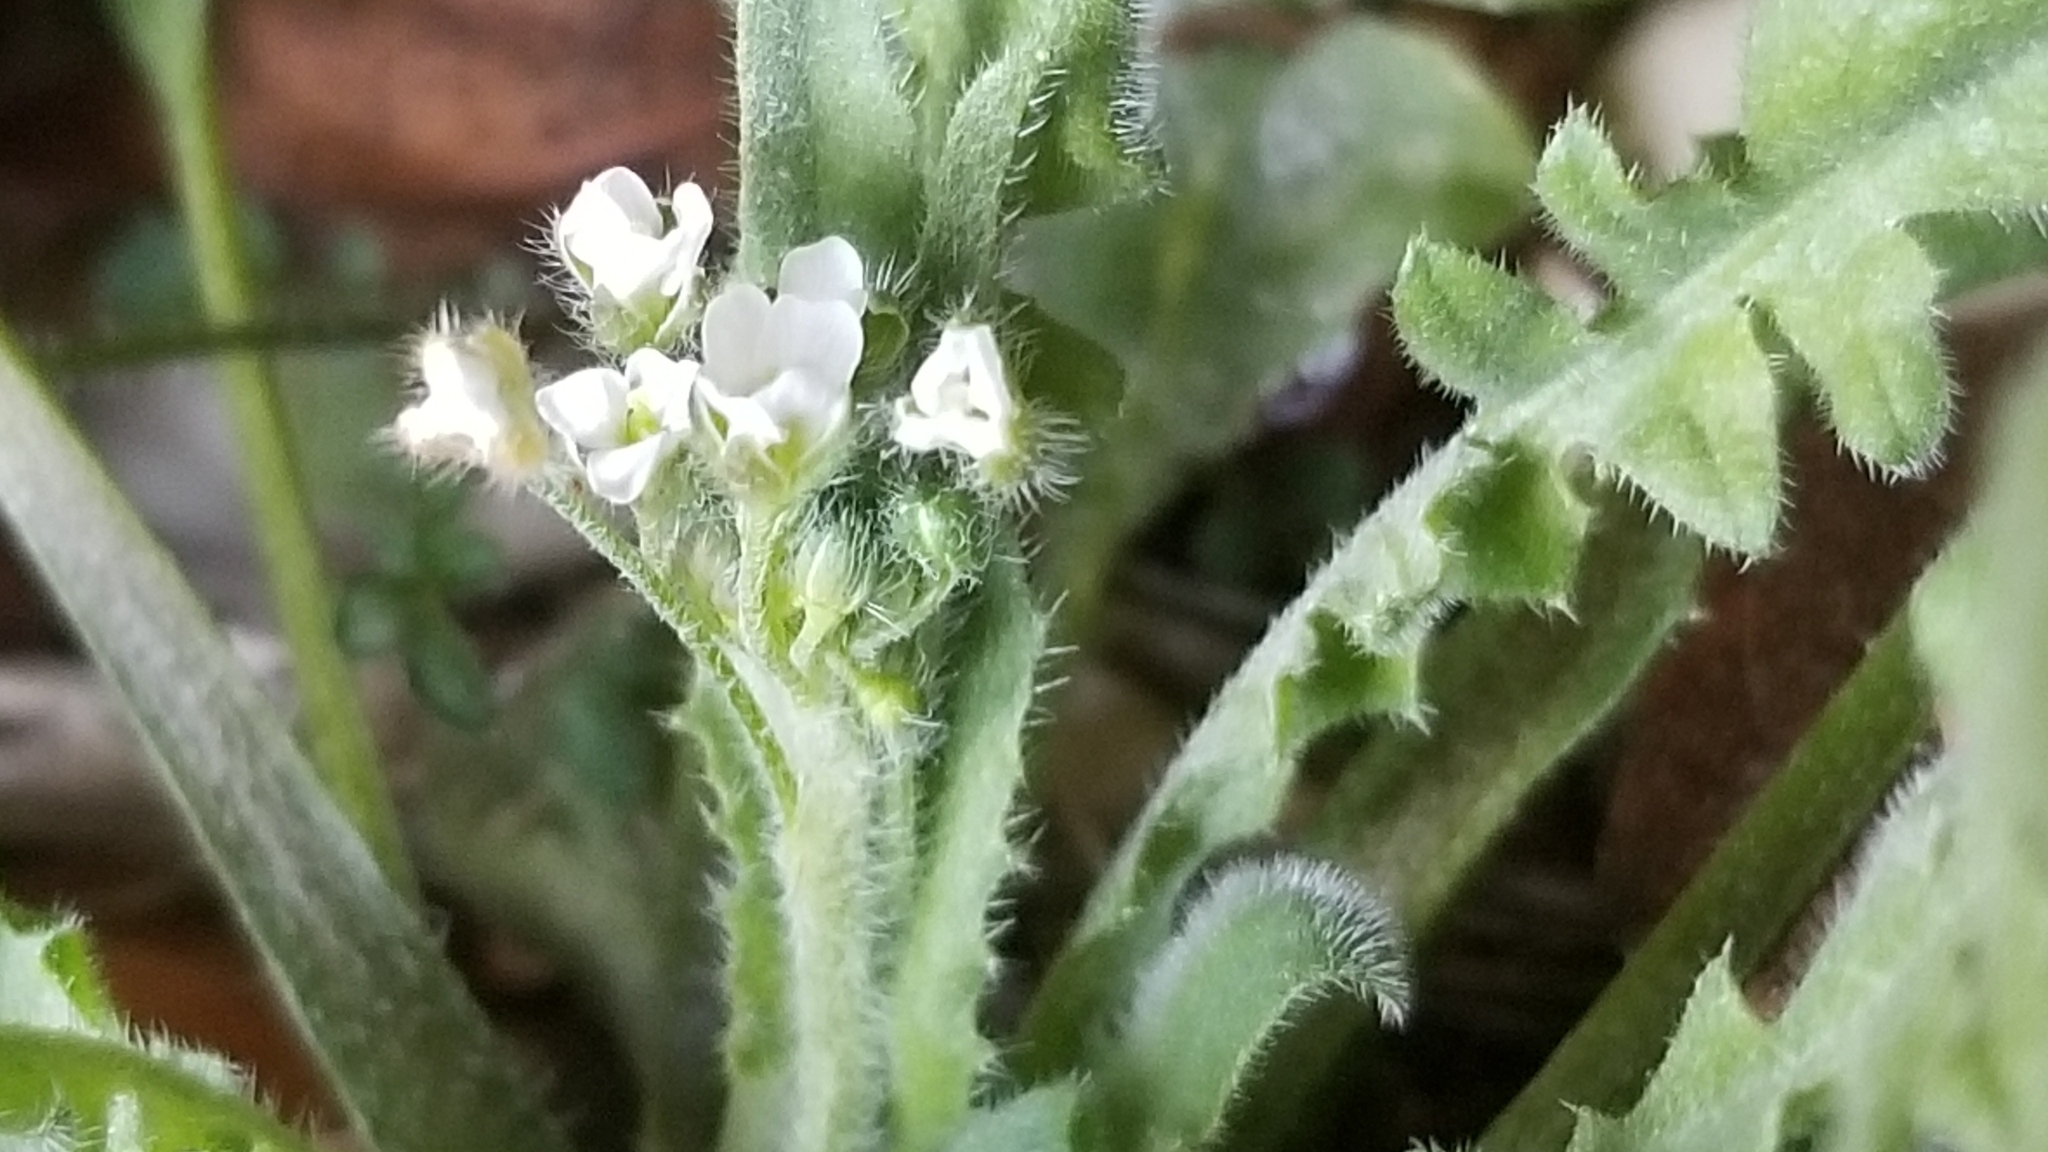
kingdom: Plantae
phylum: Tracheophyta
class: Magnoliopsida
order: Brassicales
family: Brassicaceae
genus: Capsella
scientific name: Capsella bursa-pastoris
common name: Shepherd's purse
